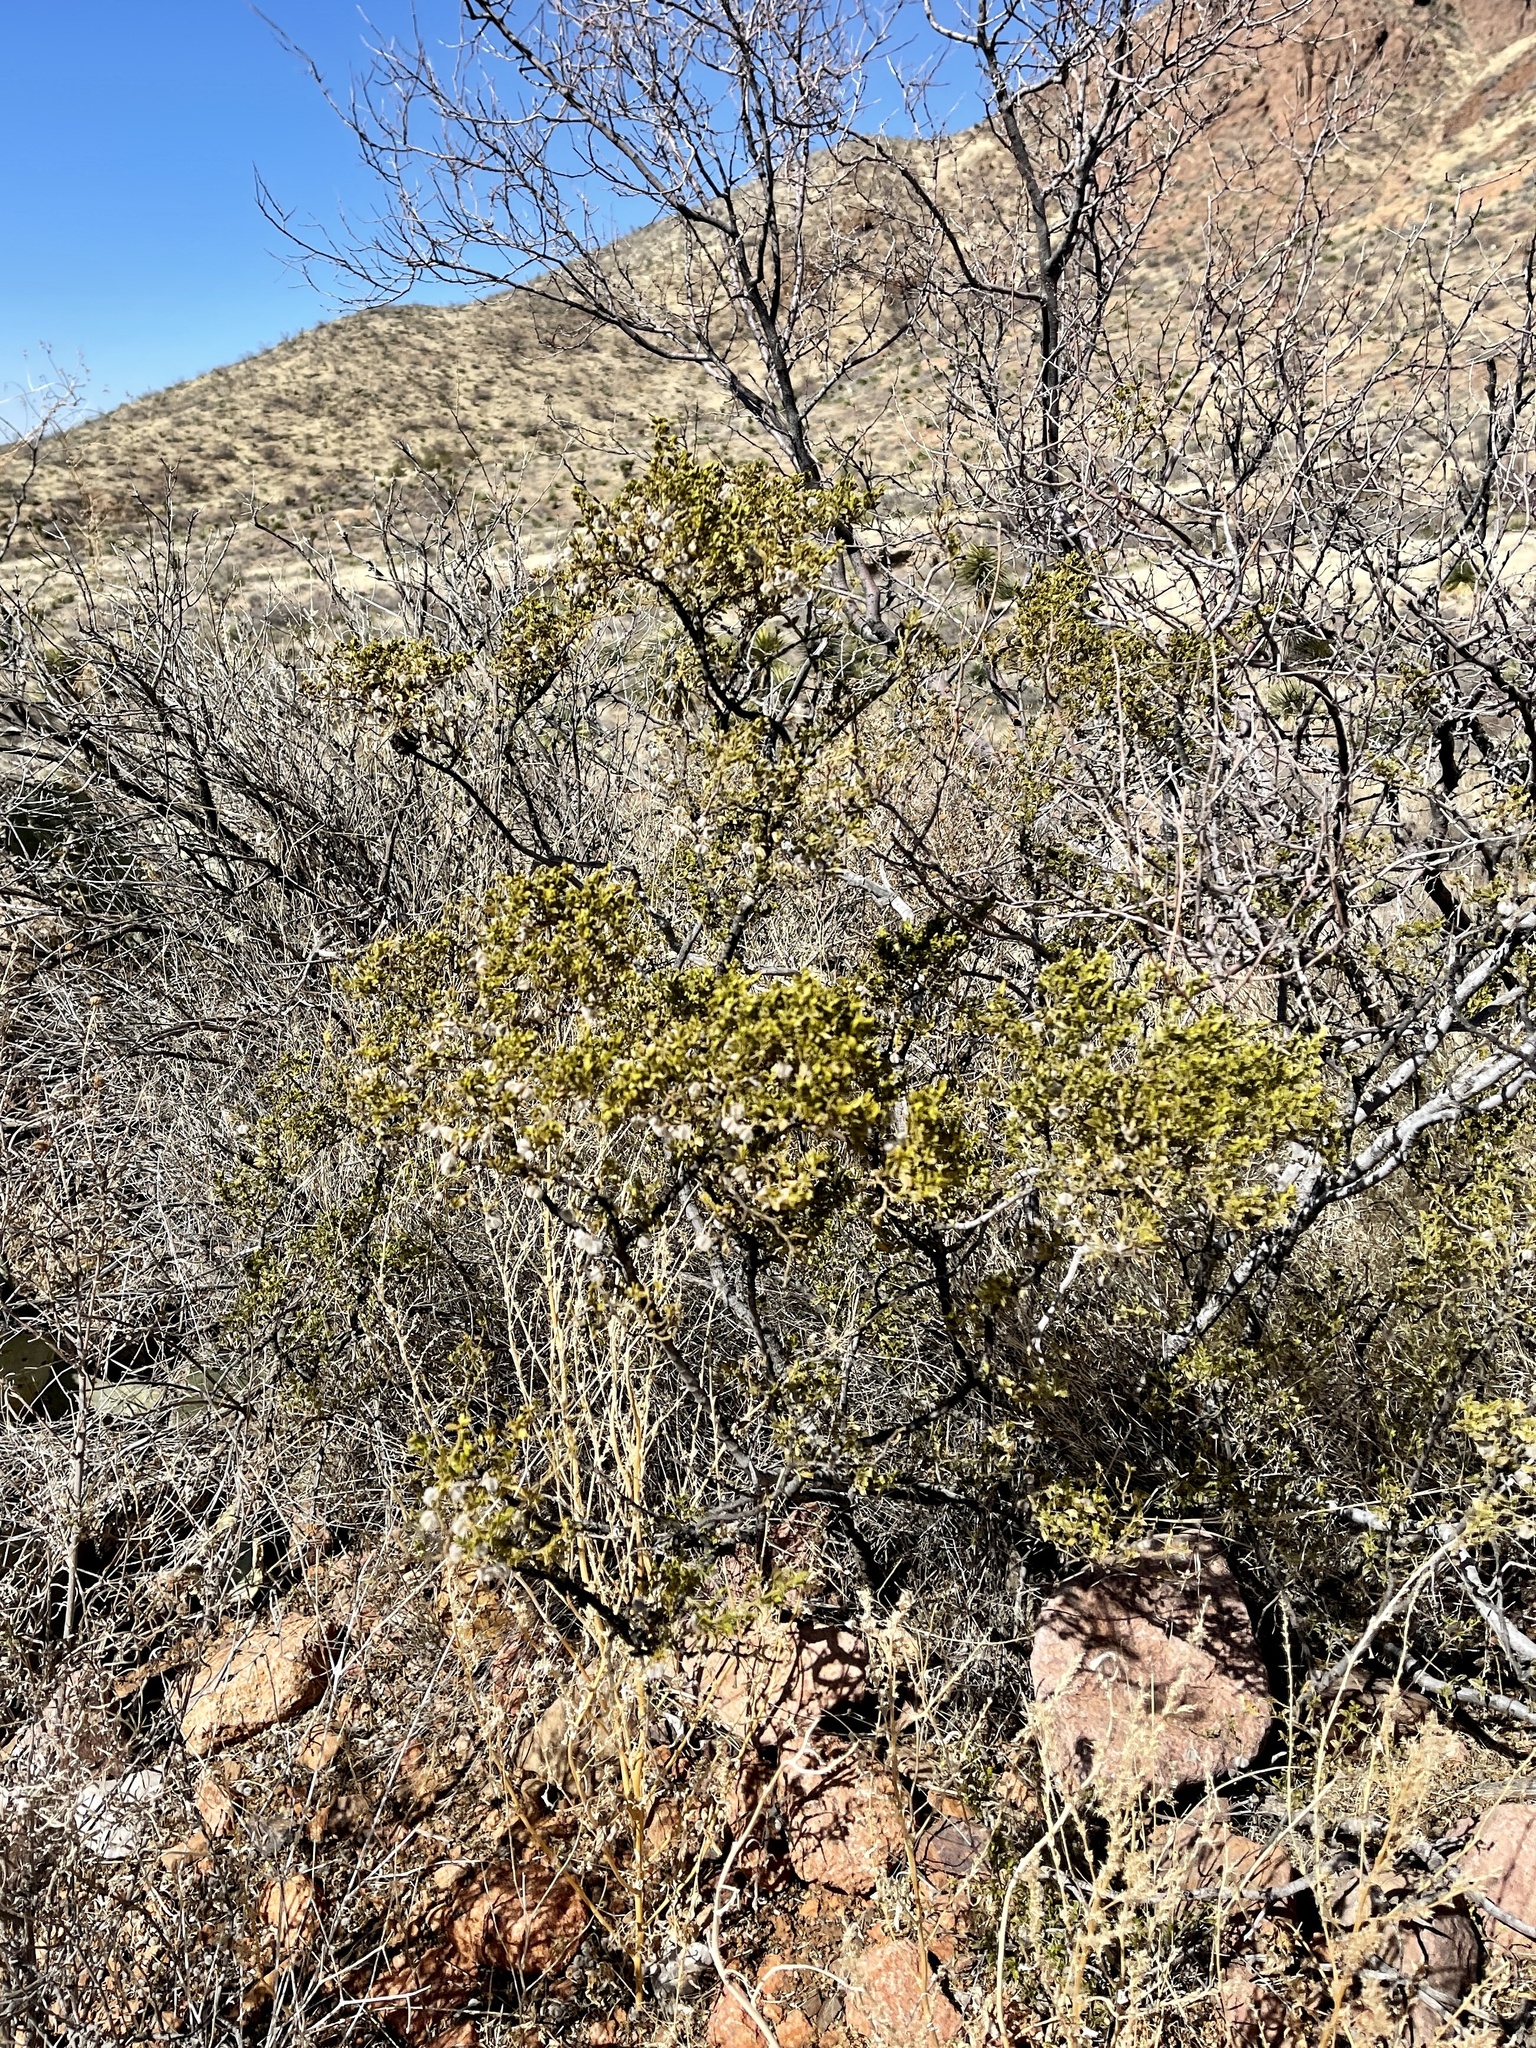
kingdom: Plantae
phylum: Tracheophyta
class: Magnoliopsida
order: Zygophyllales
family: Zygophyllaceae
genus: Larrea
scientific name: Larrea tridentata
